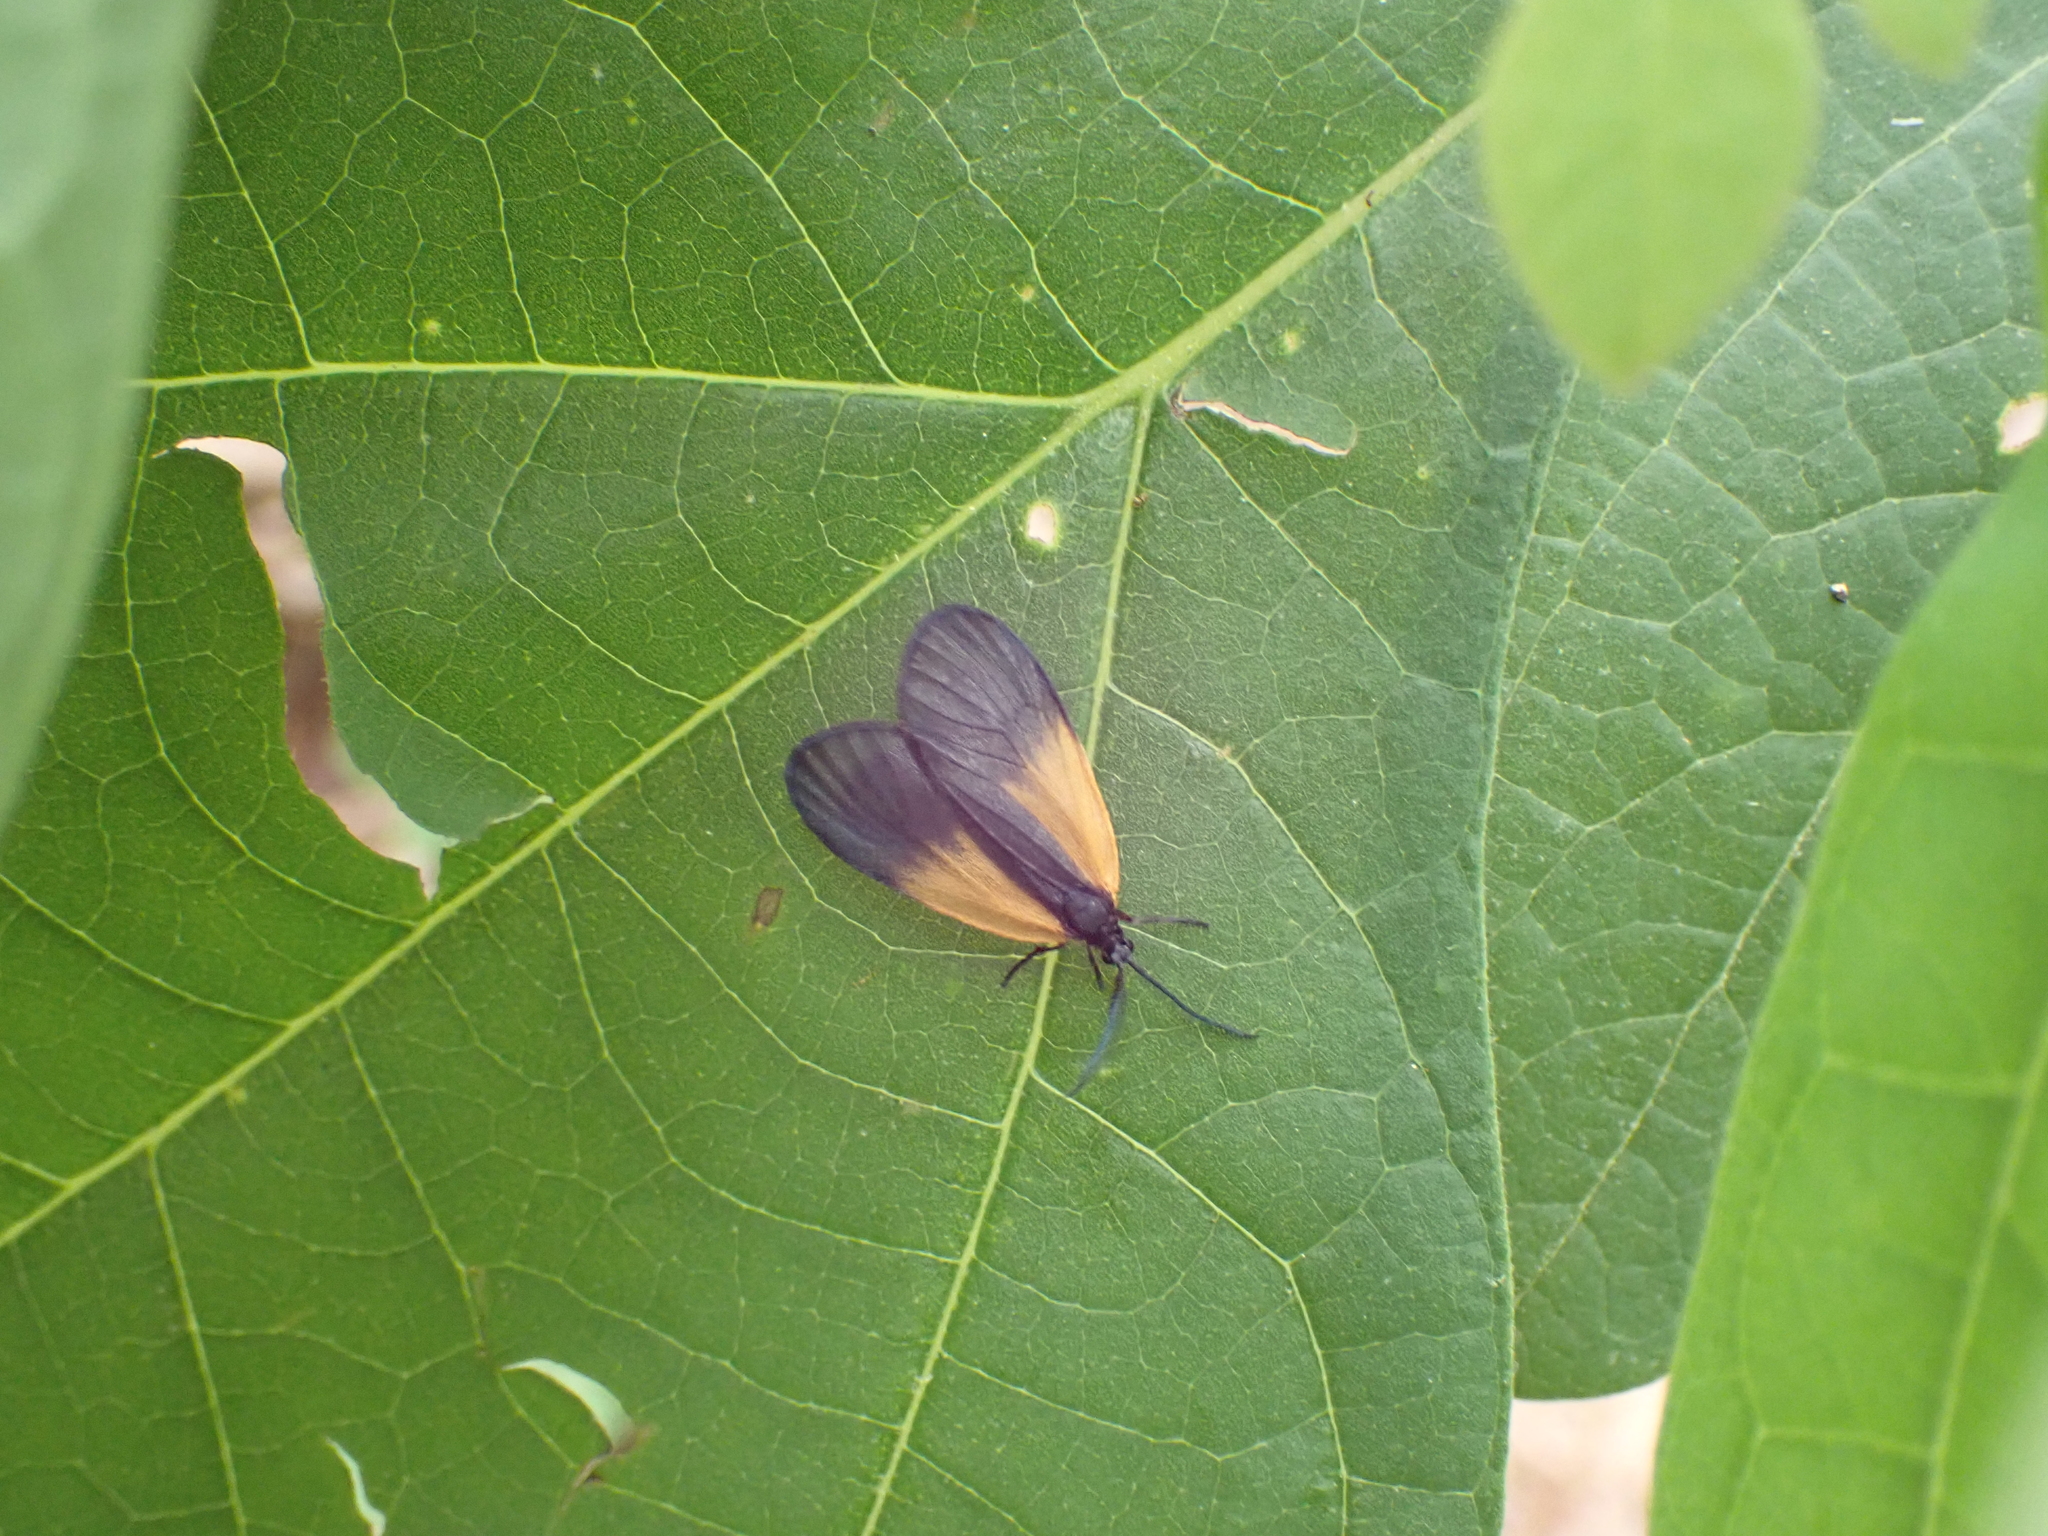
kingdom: Animalia
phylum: Arthropoda
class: Insecta
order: Lepidoptera
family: Zygaenidae
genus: Malthaca
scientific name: Malthaca dimidiata
